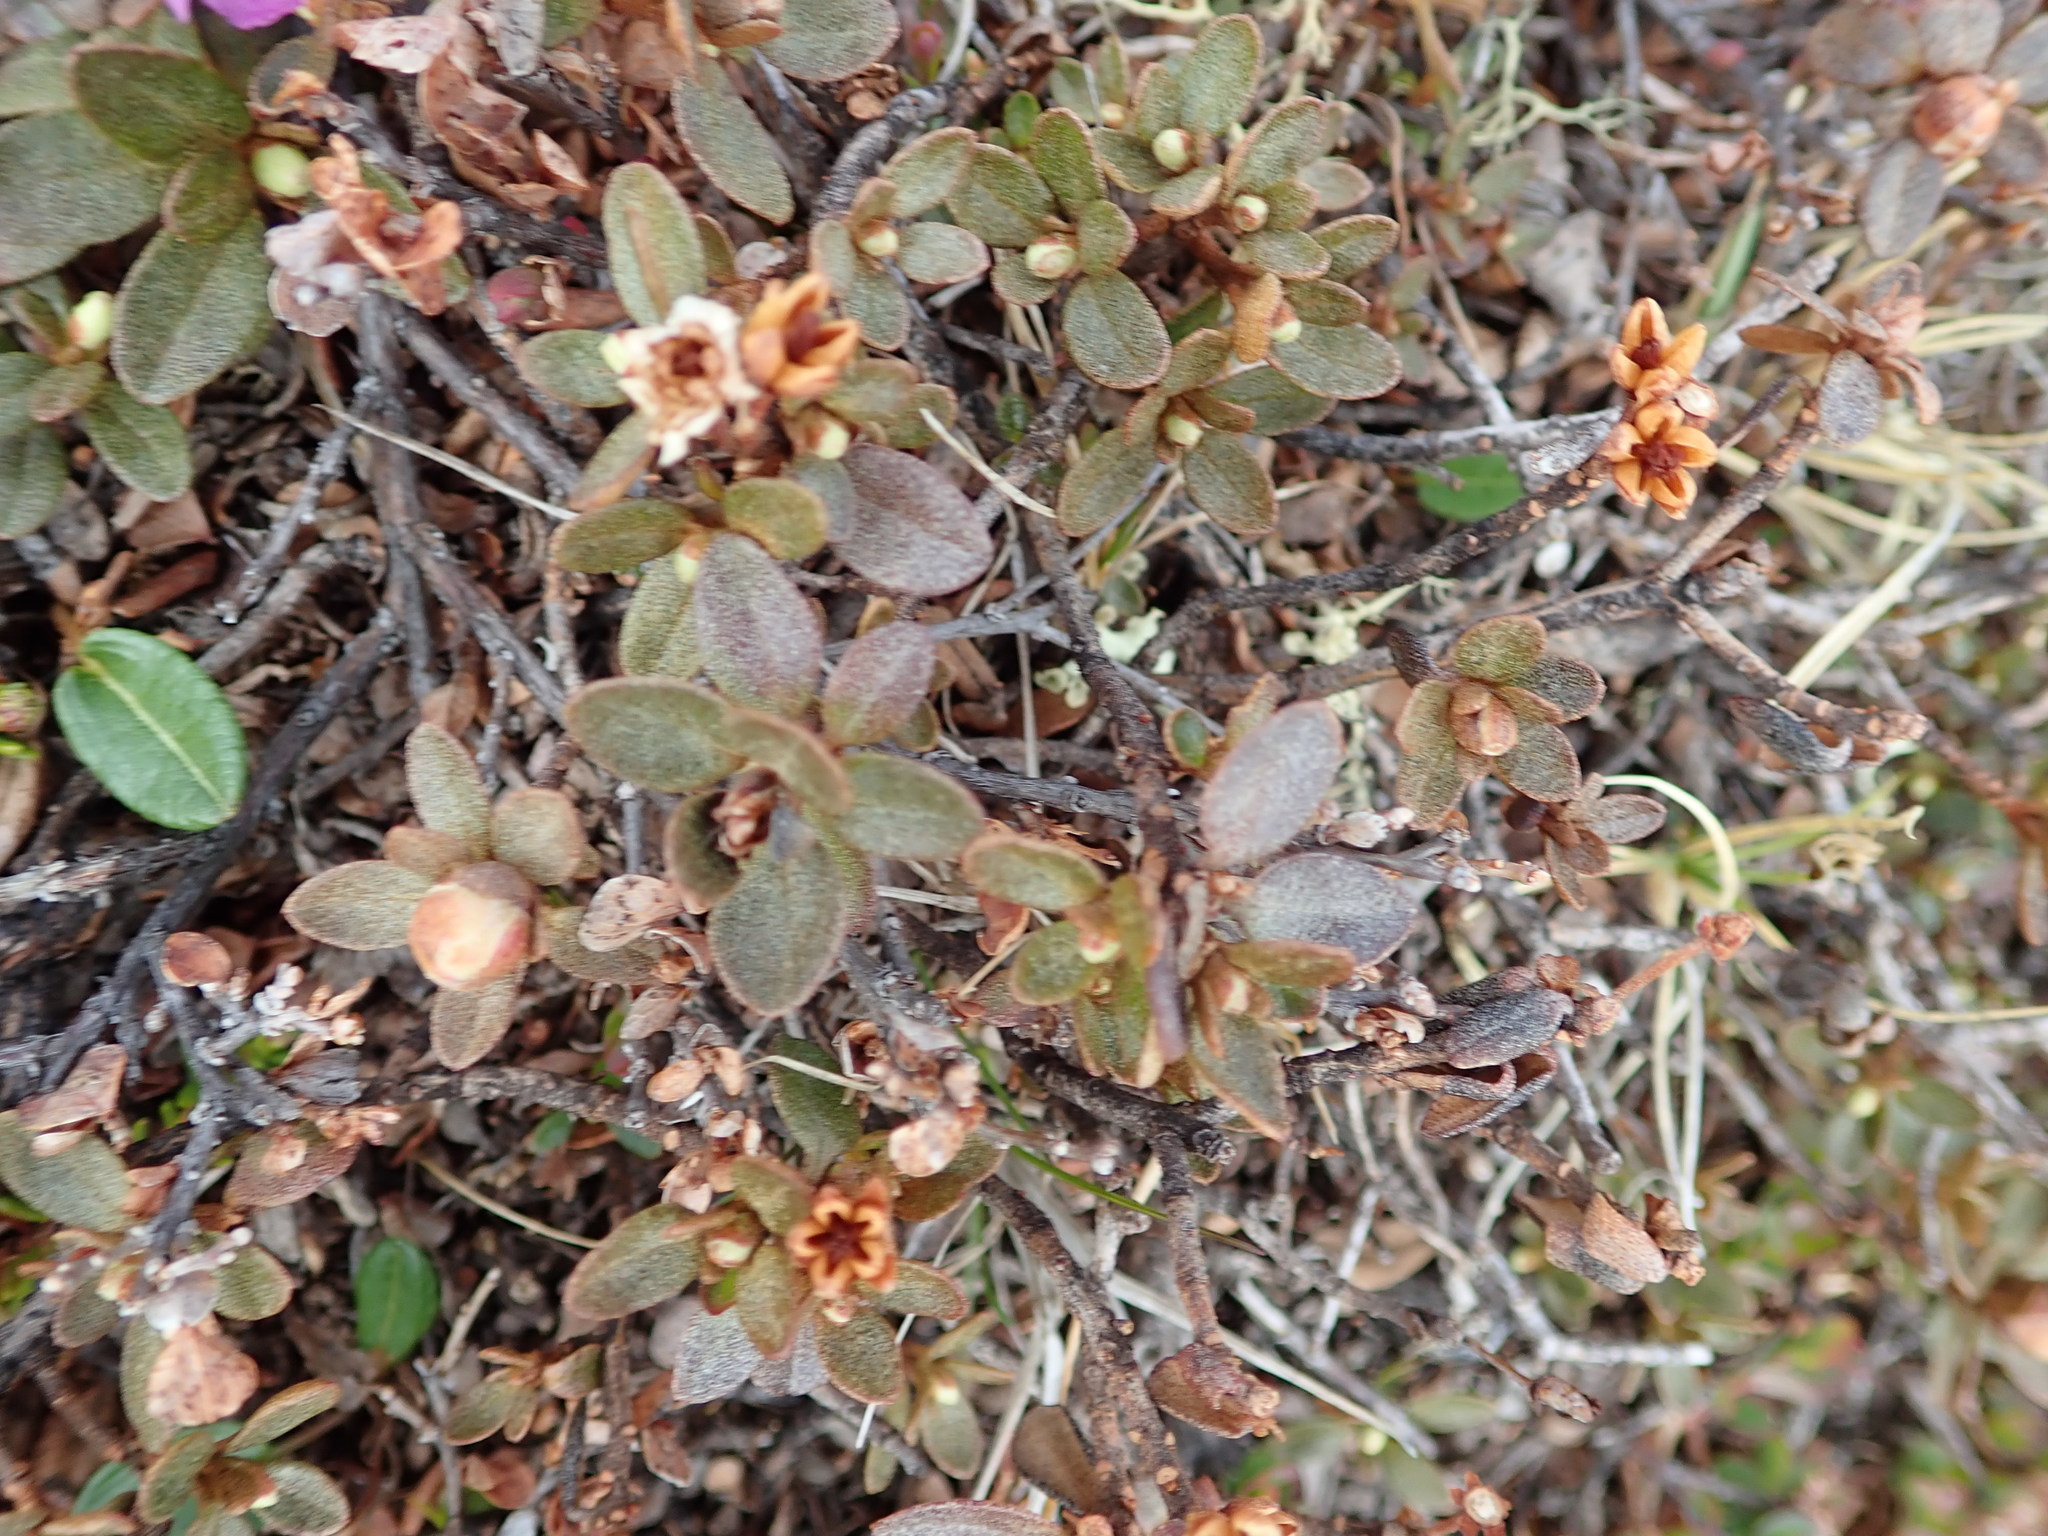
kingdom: Plantae
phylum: Tracheophyta
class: Magnoliopsida
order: Ericales
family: Ericaceae
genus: Rhododendron
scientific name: Rhododendron lapponicum
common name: Lapland rhododendron
